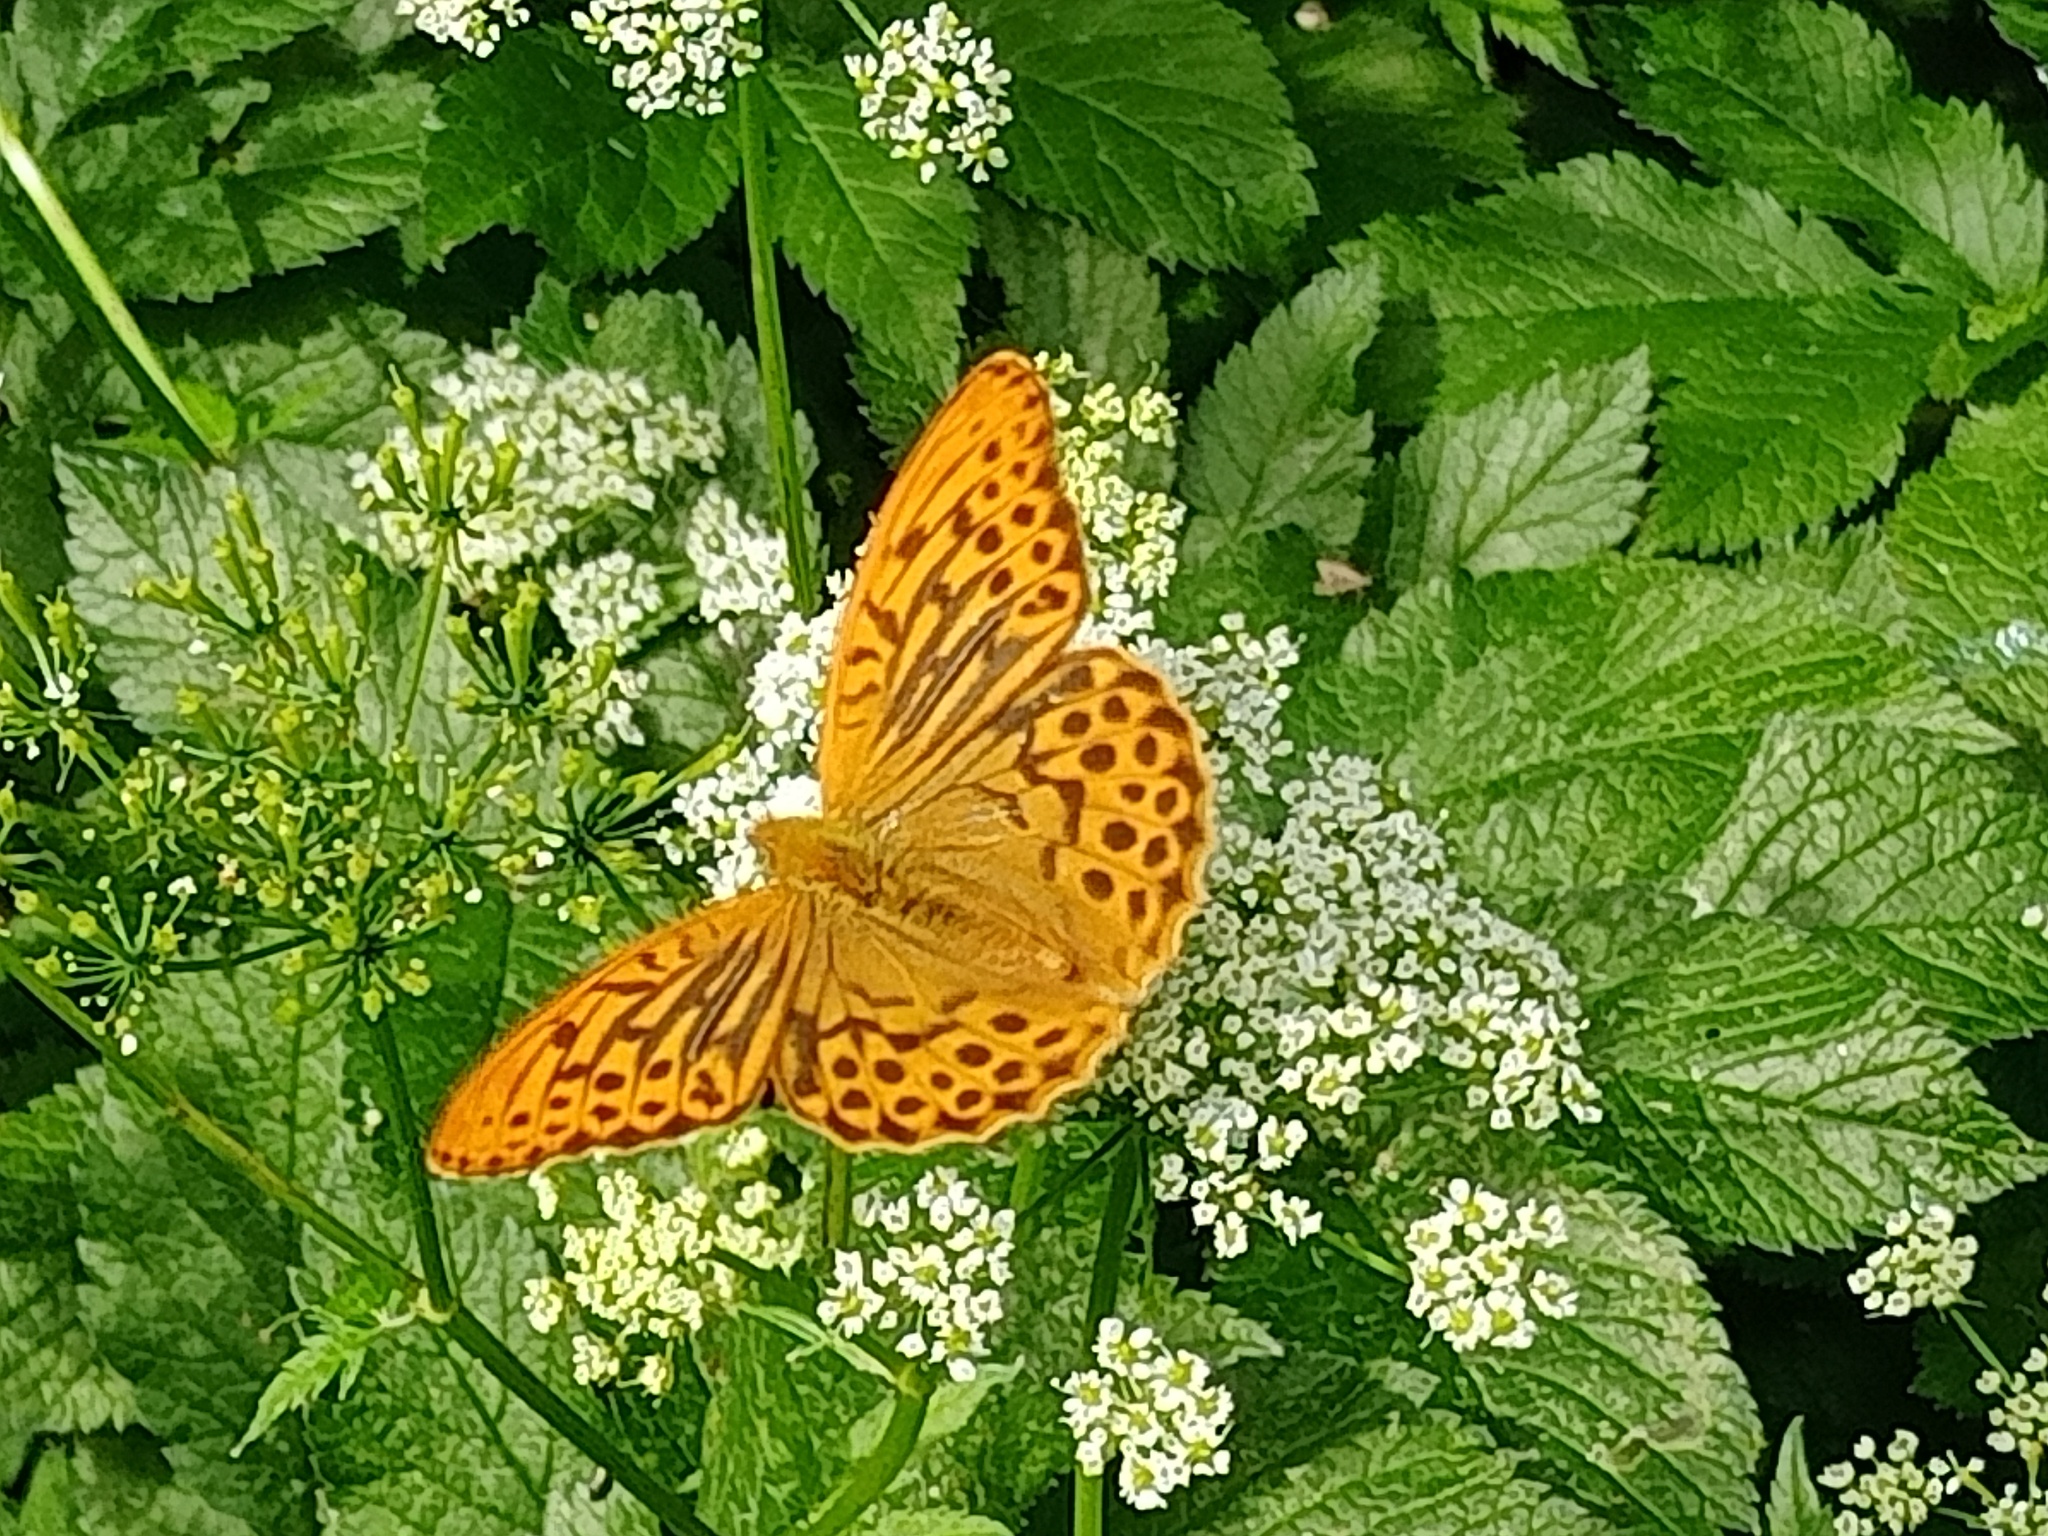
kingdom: Animalia
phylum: Arthropoda
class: Insecta
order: Lepidoptera
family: Nymphalidae
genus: Argynnis
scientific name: Argynnis paphia
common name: Silver-washed fritillary
